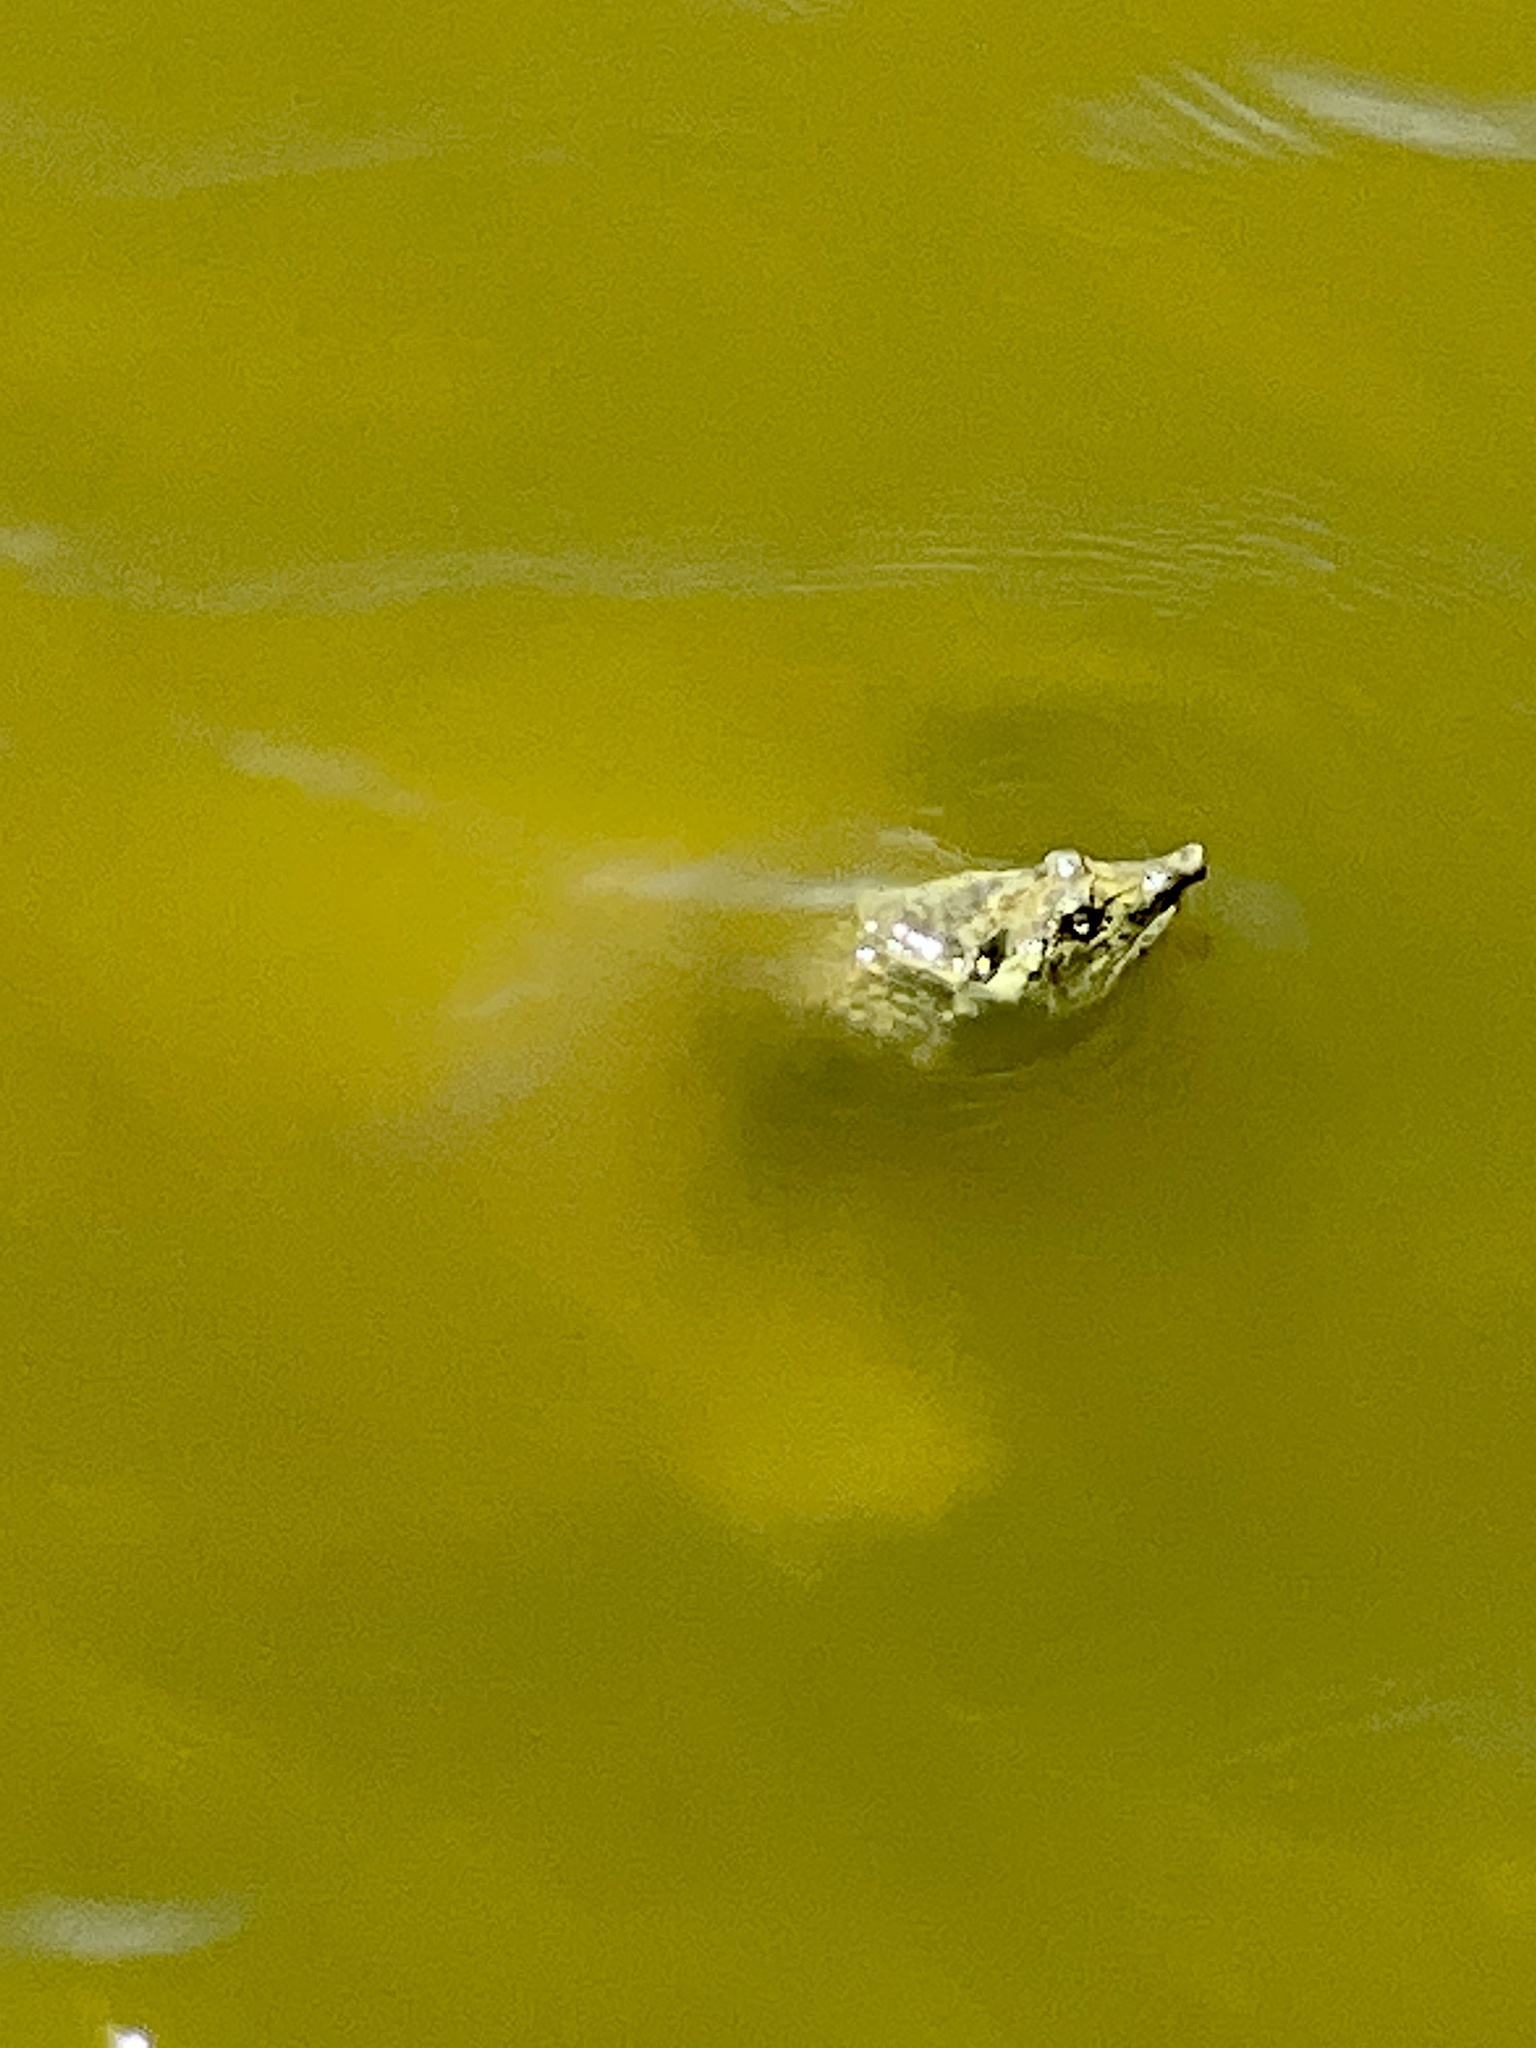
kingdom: Animalia
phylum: Chordata
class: Testudines
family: Trionychidae
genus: Apalone
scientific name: Apalone spinifera
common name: Spiny softshell turtle
